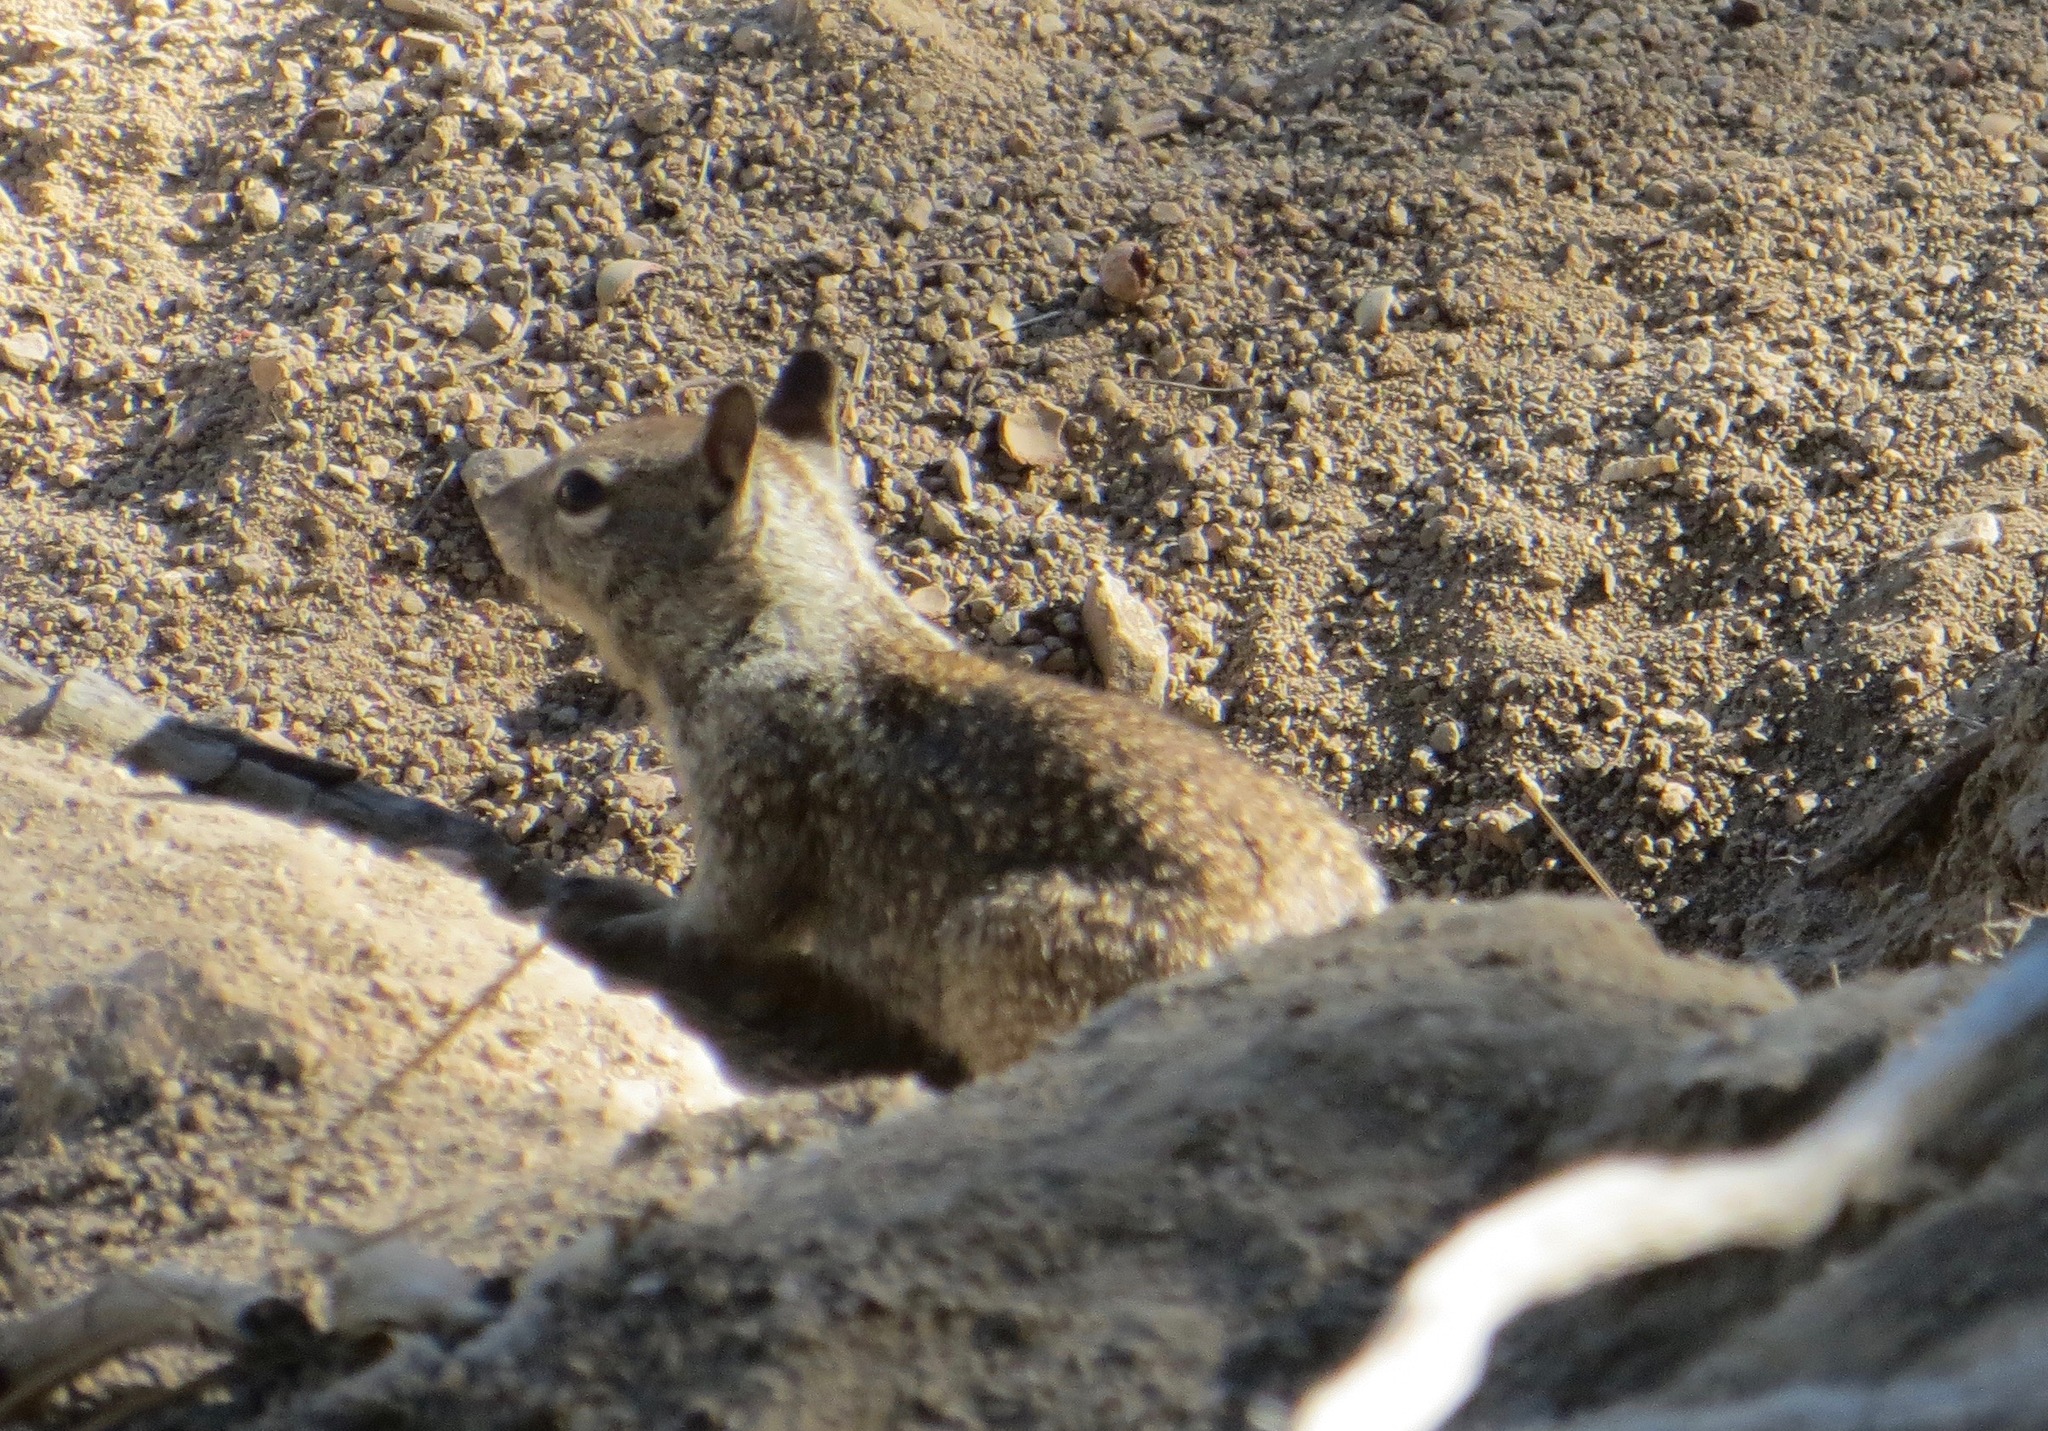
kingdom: Animalia
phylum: Chordata
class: Mammalia
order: Rodentia
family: Sciuridae
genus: Otospermophilus
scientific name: Otospermophilus beecheyi
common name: California ground squirrel
